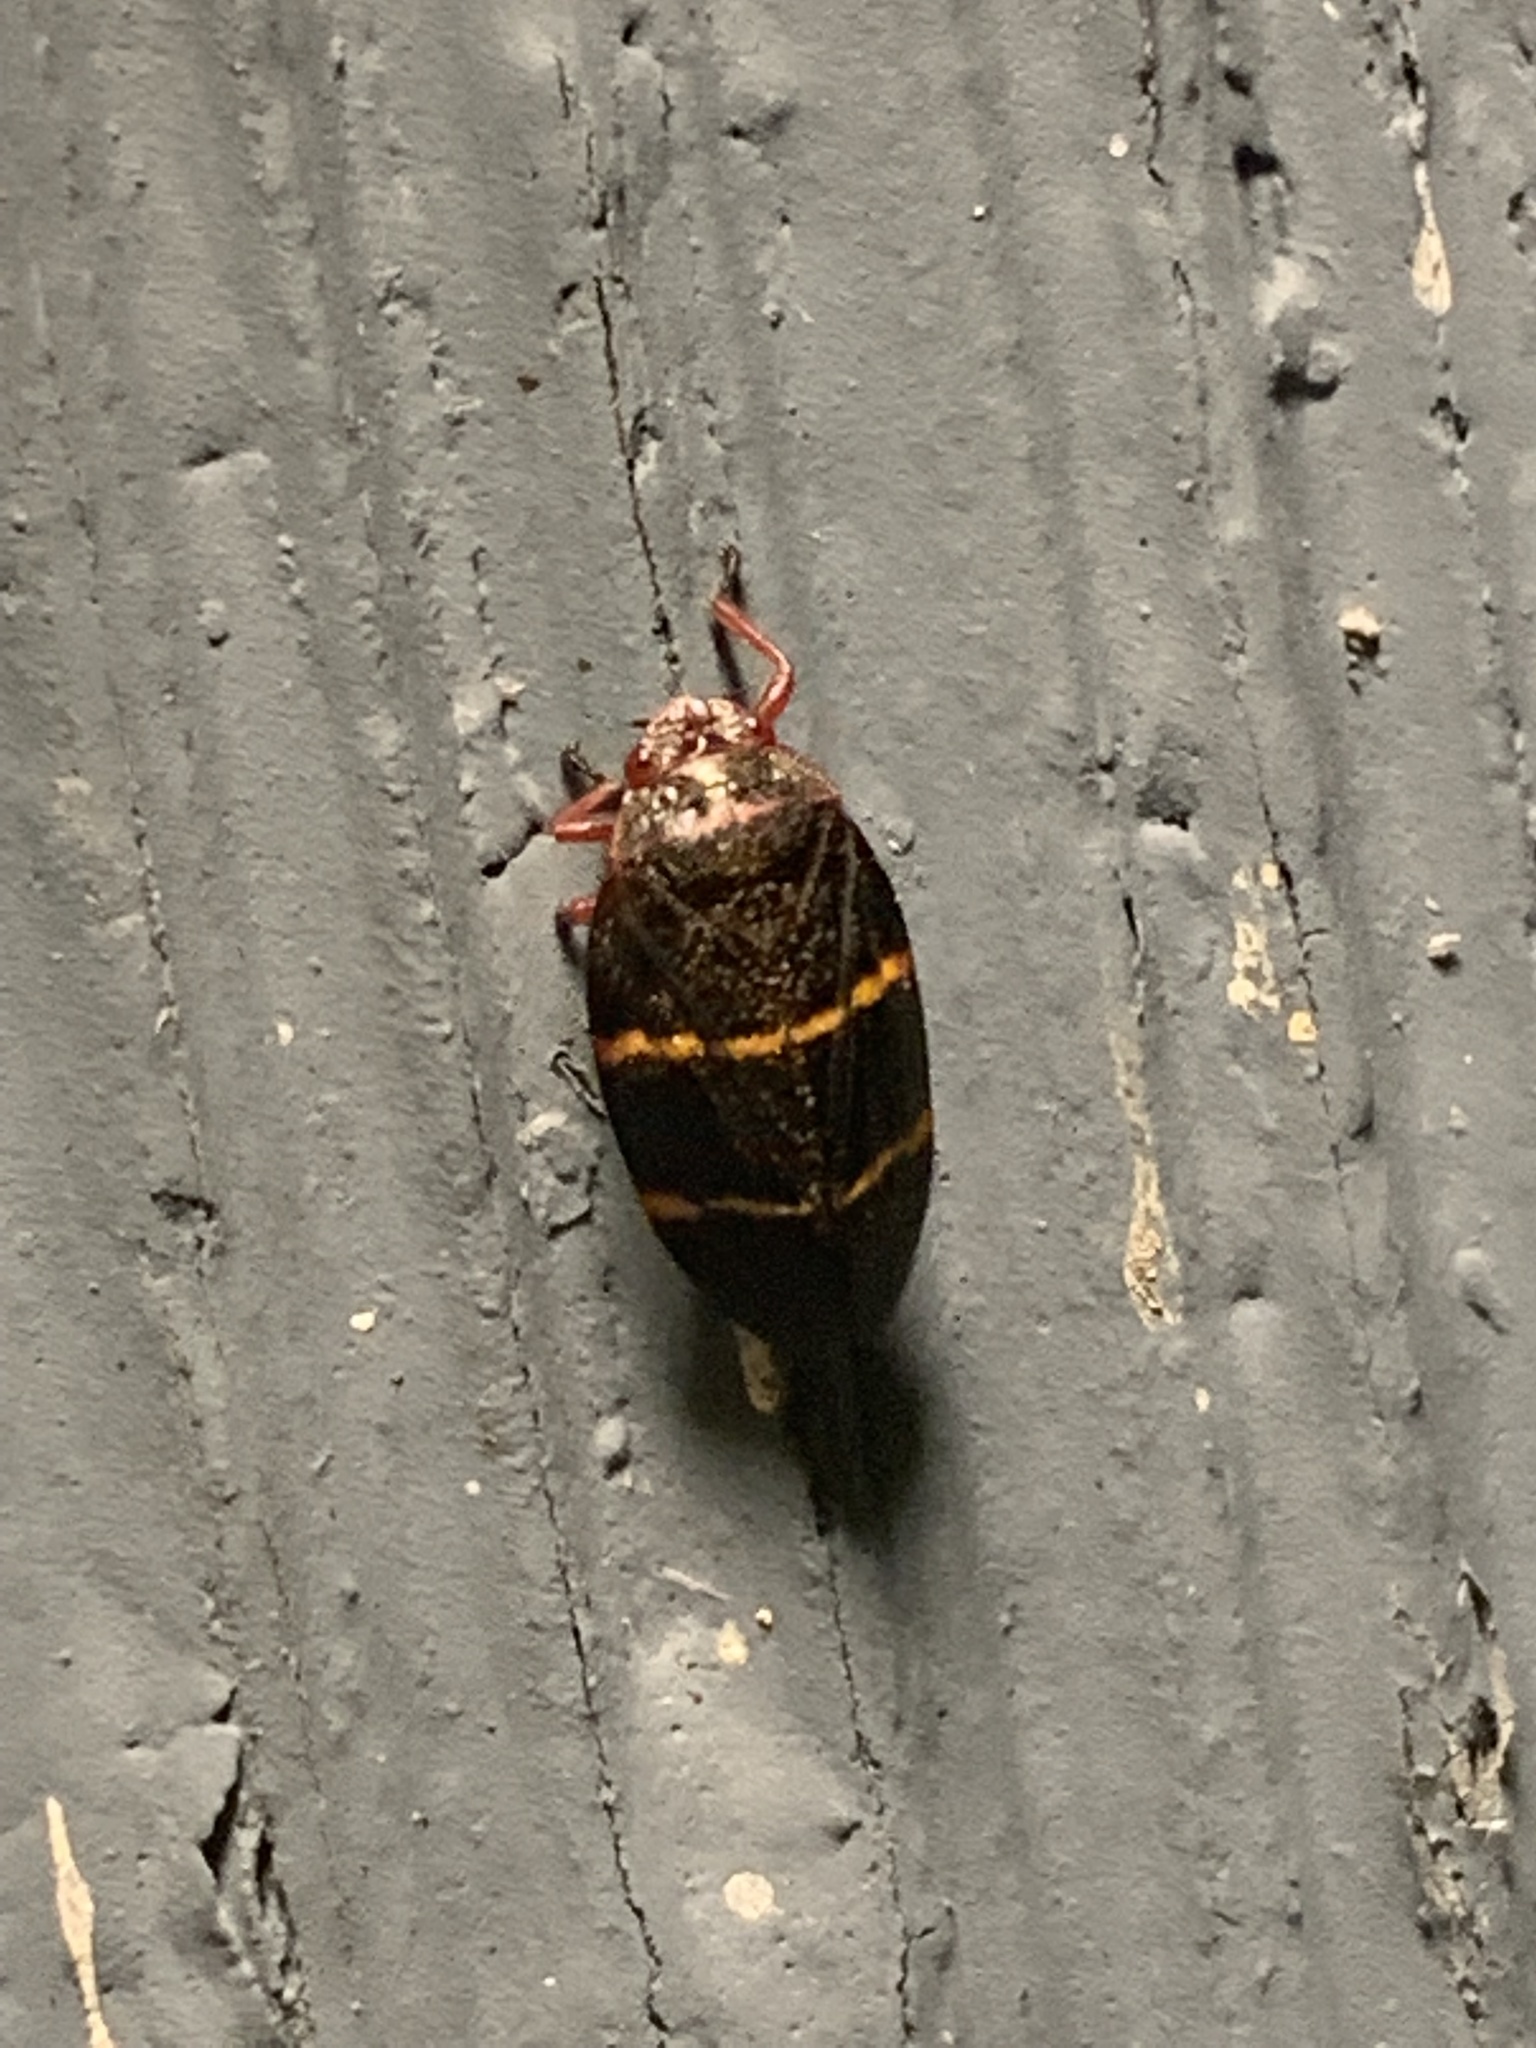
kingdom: Animalia
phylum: Arthropoda
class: Insecta
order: Hemiptera
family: Cercopidae
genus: Prosapia
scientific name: Prosapia bicincta
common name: Twolined spittlebug
